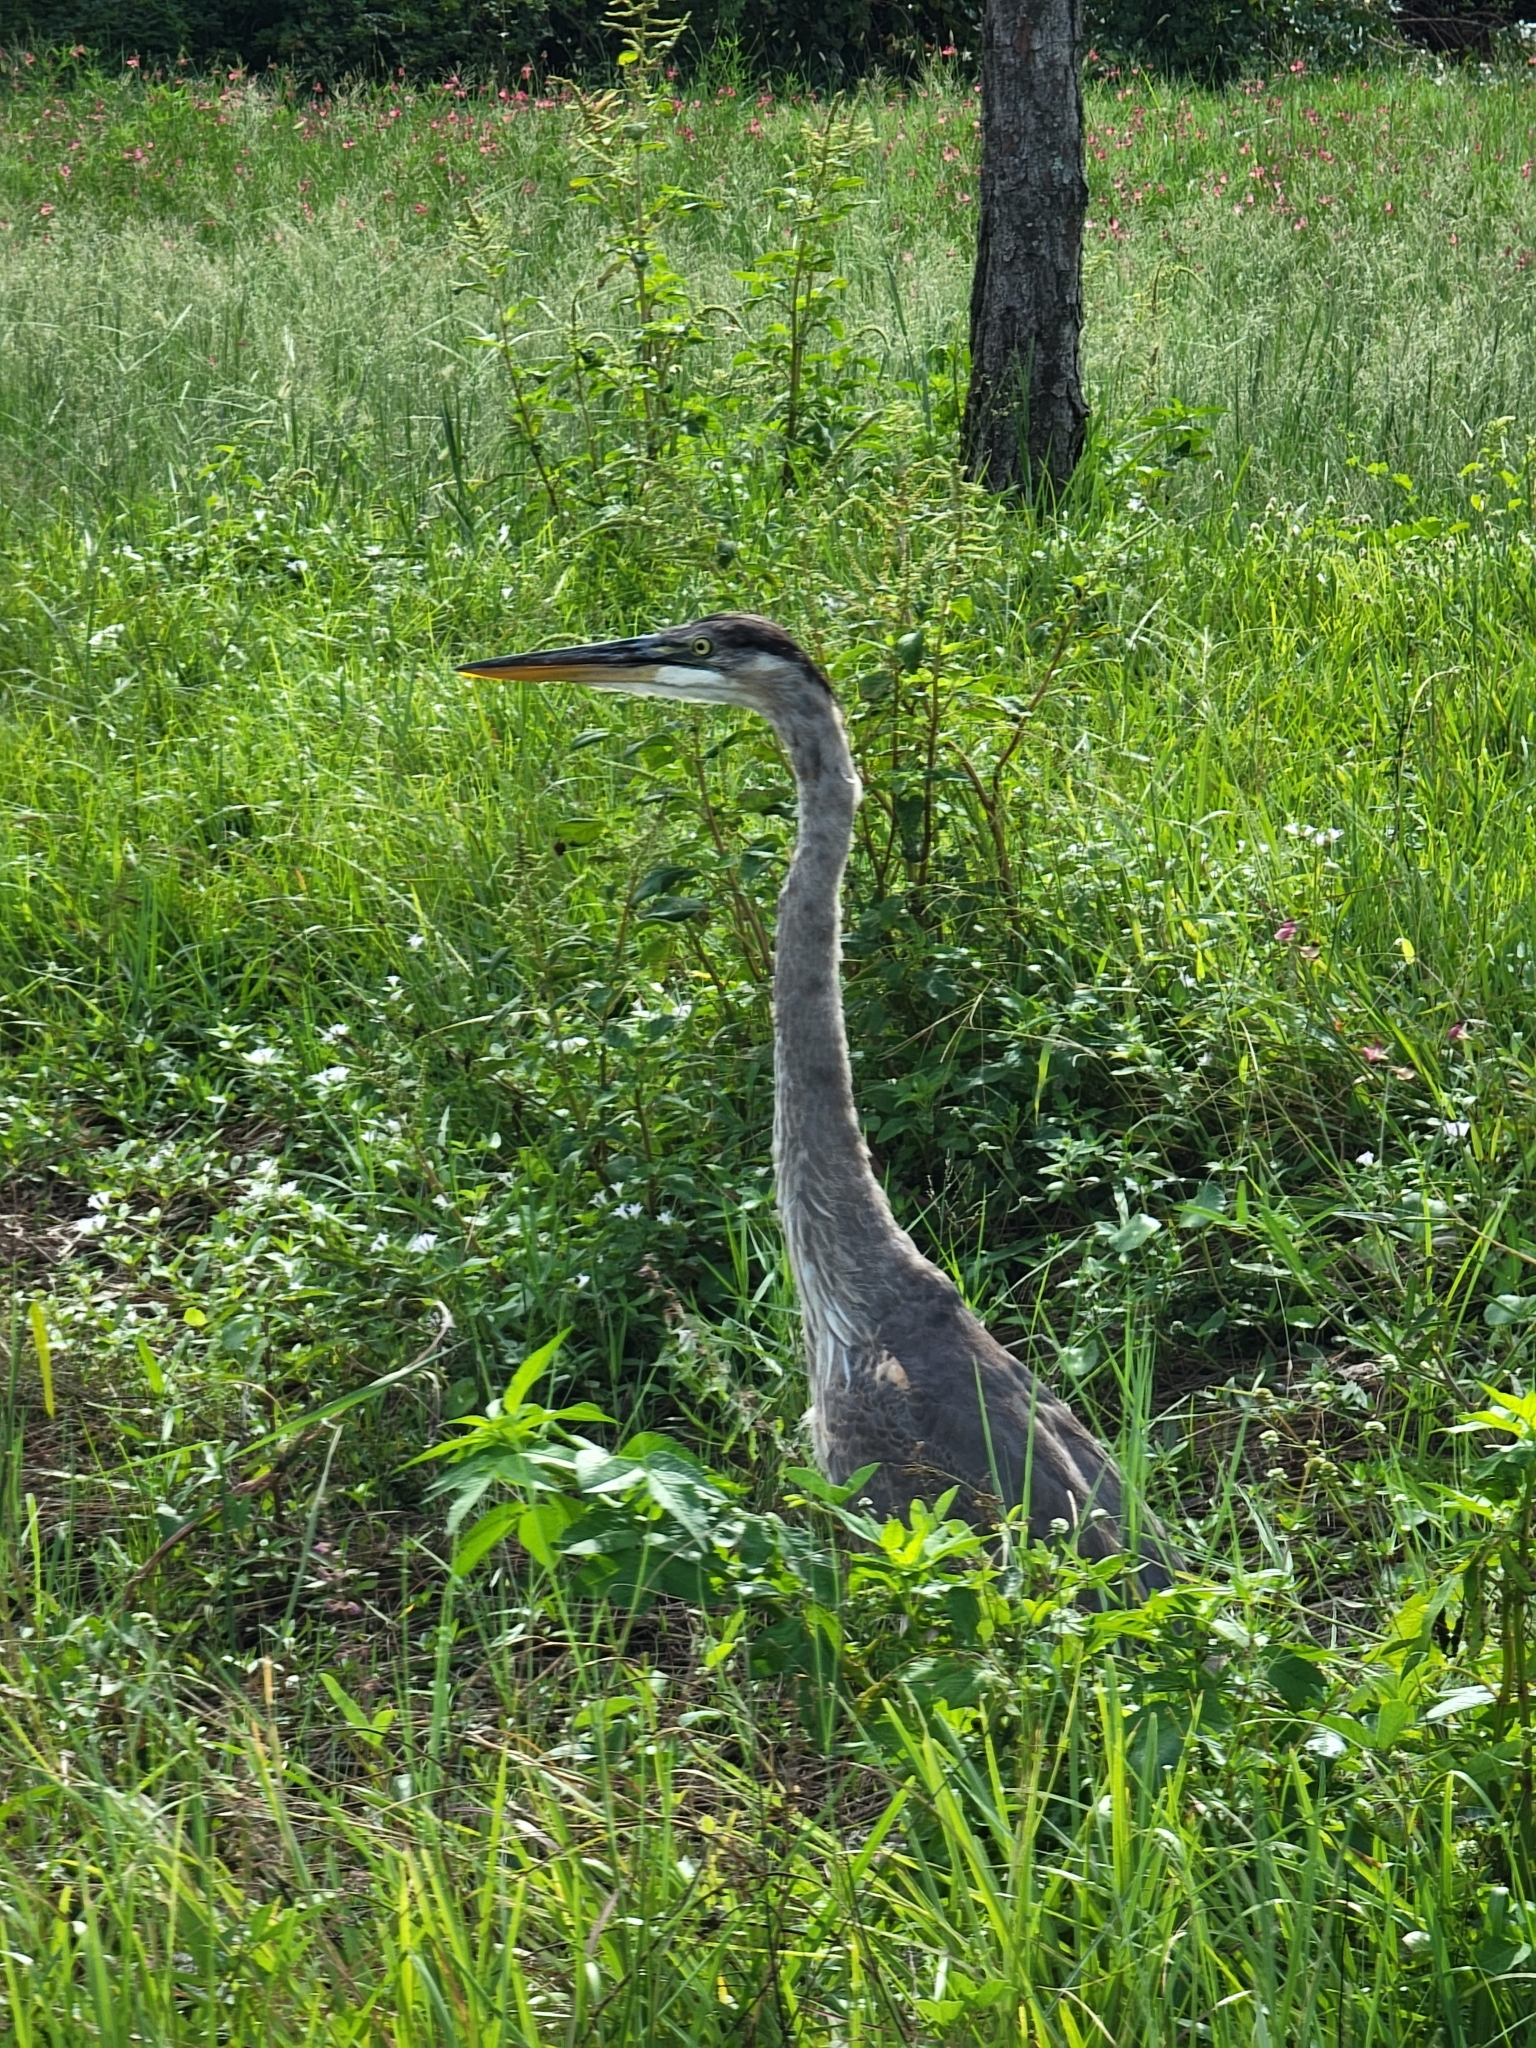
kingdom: Animalia
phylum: Chordata
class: Aves
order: Pelecaniformes
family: Ardeidae
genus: Ardea
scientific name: Ardea herodias
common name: Great blue heron
